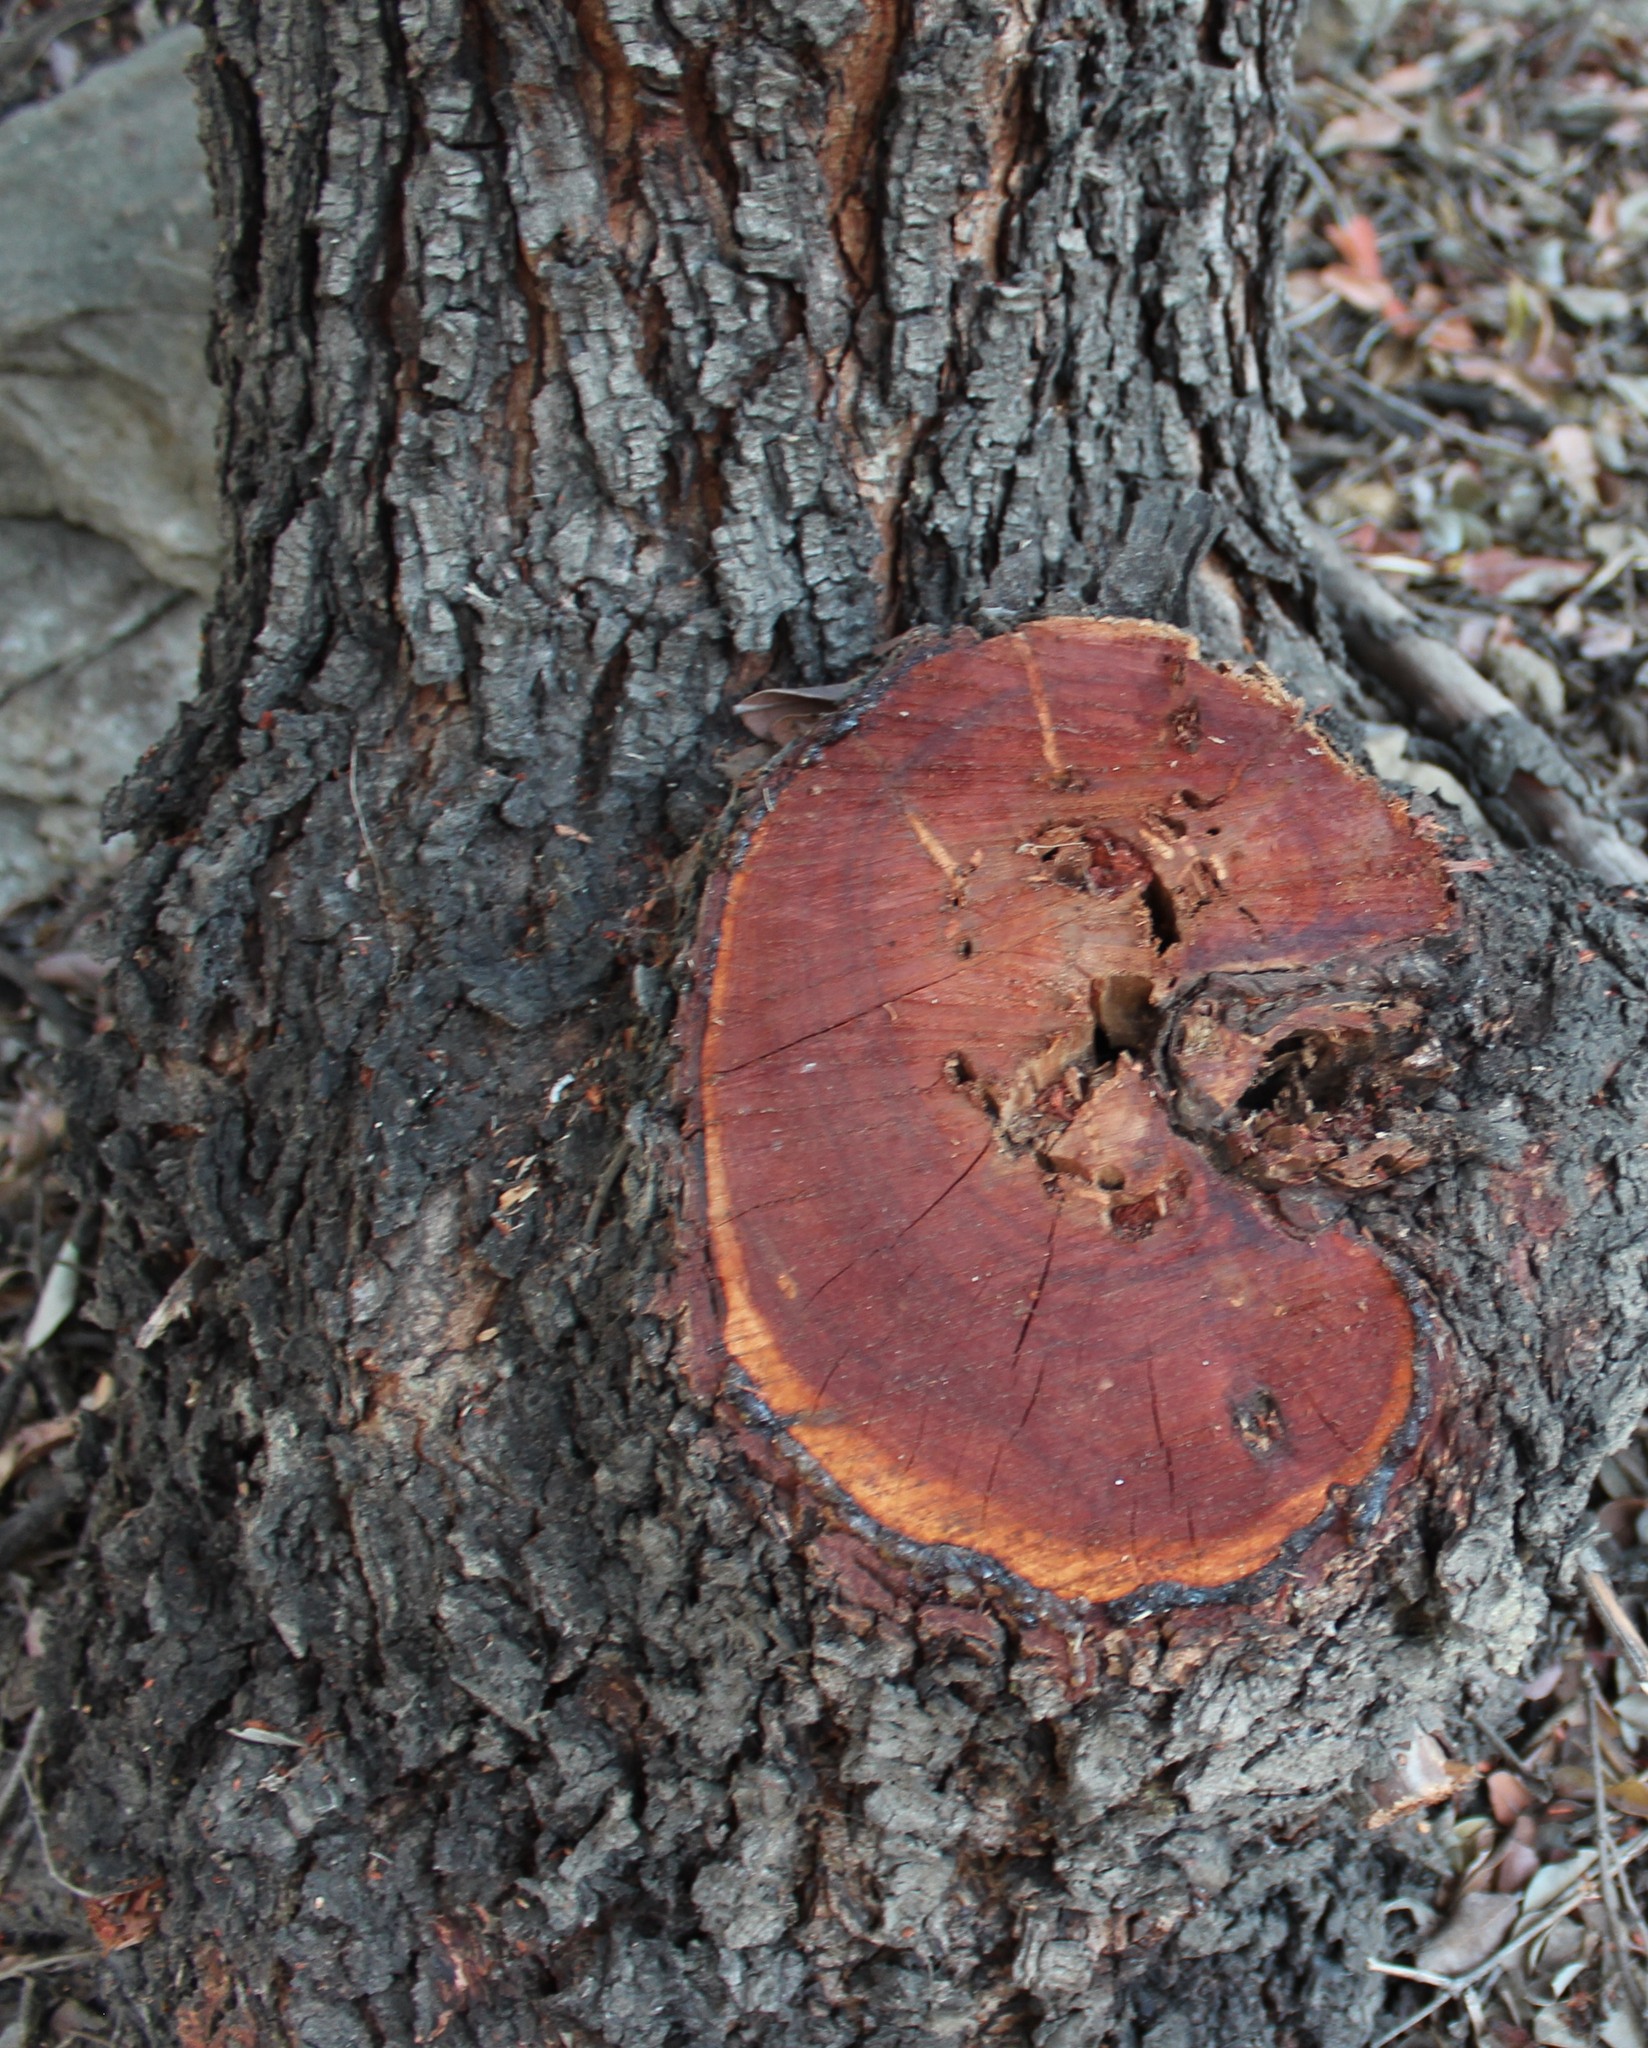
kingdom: Plantae
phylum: Tracheophyta
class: Magnoliopsida
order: Sapindales
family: Anacardiaceae
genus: Rhus
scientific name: Rhus integrifolia
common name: Lemonade sumac
